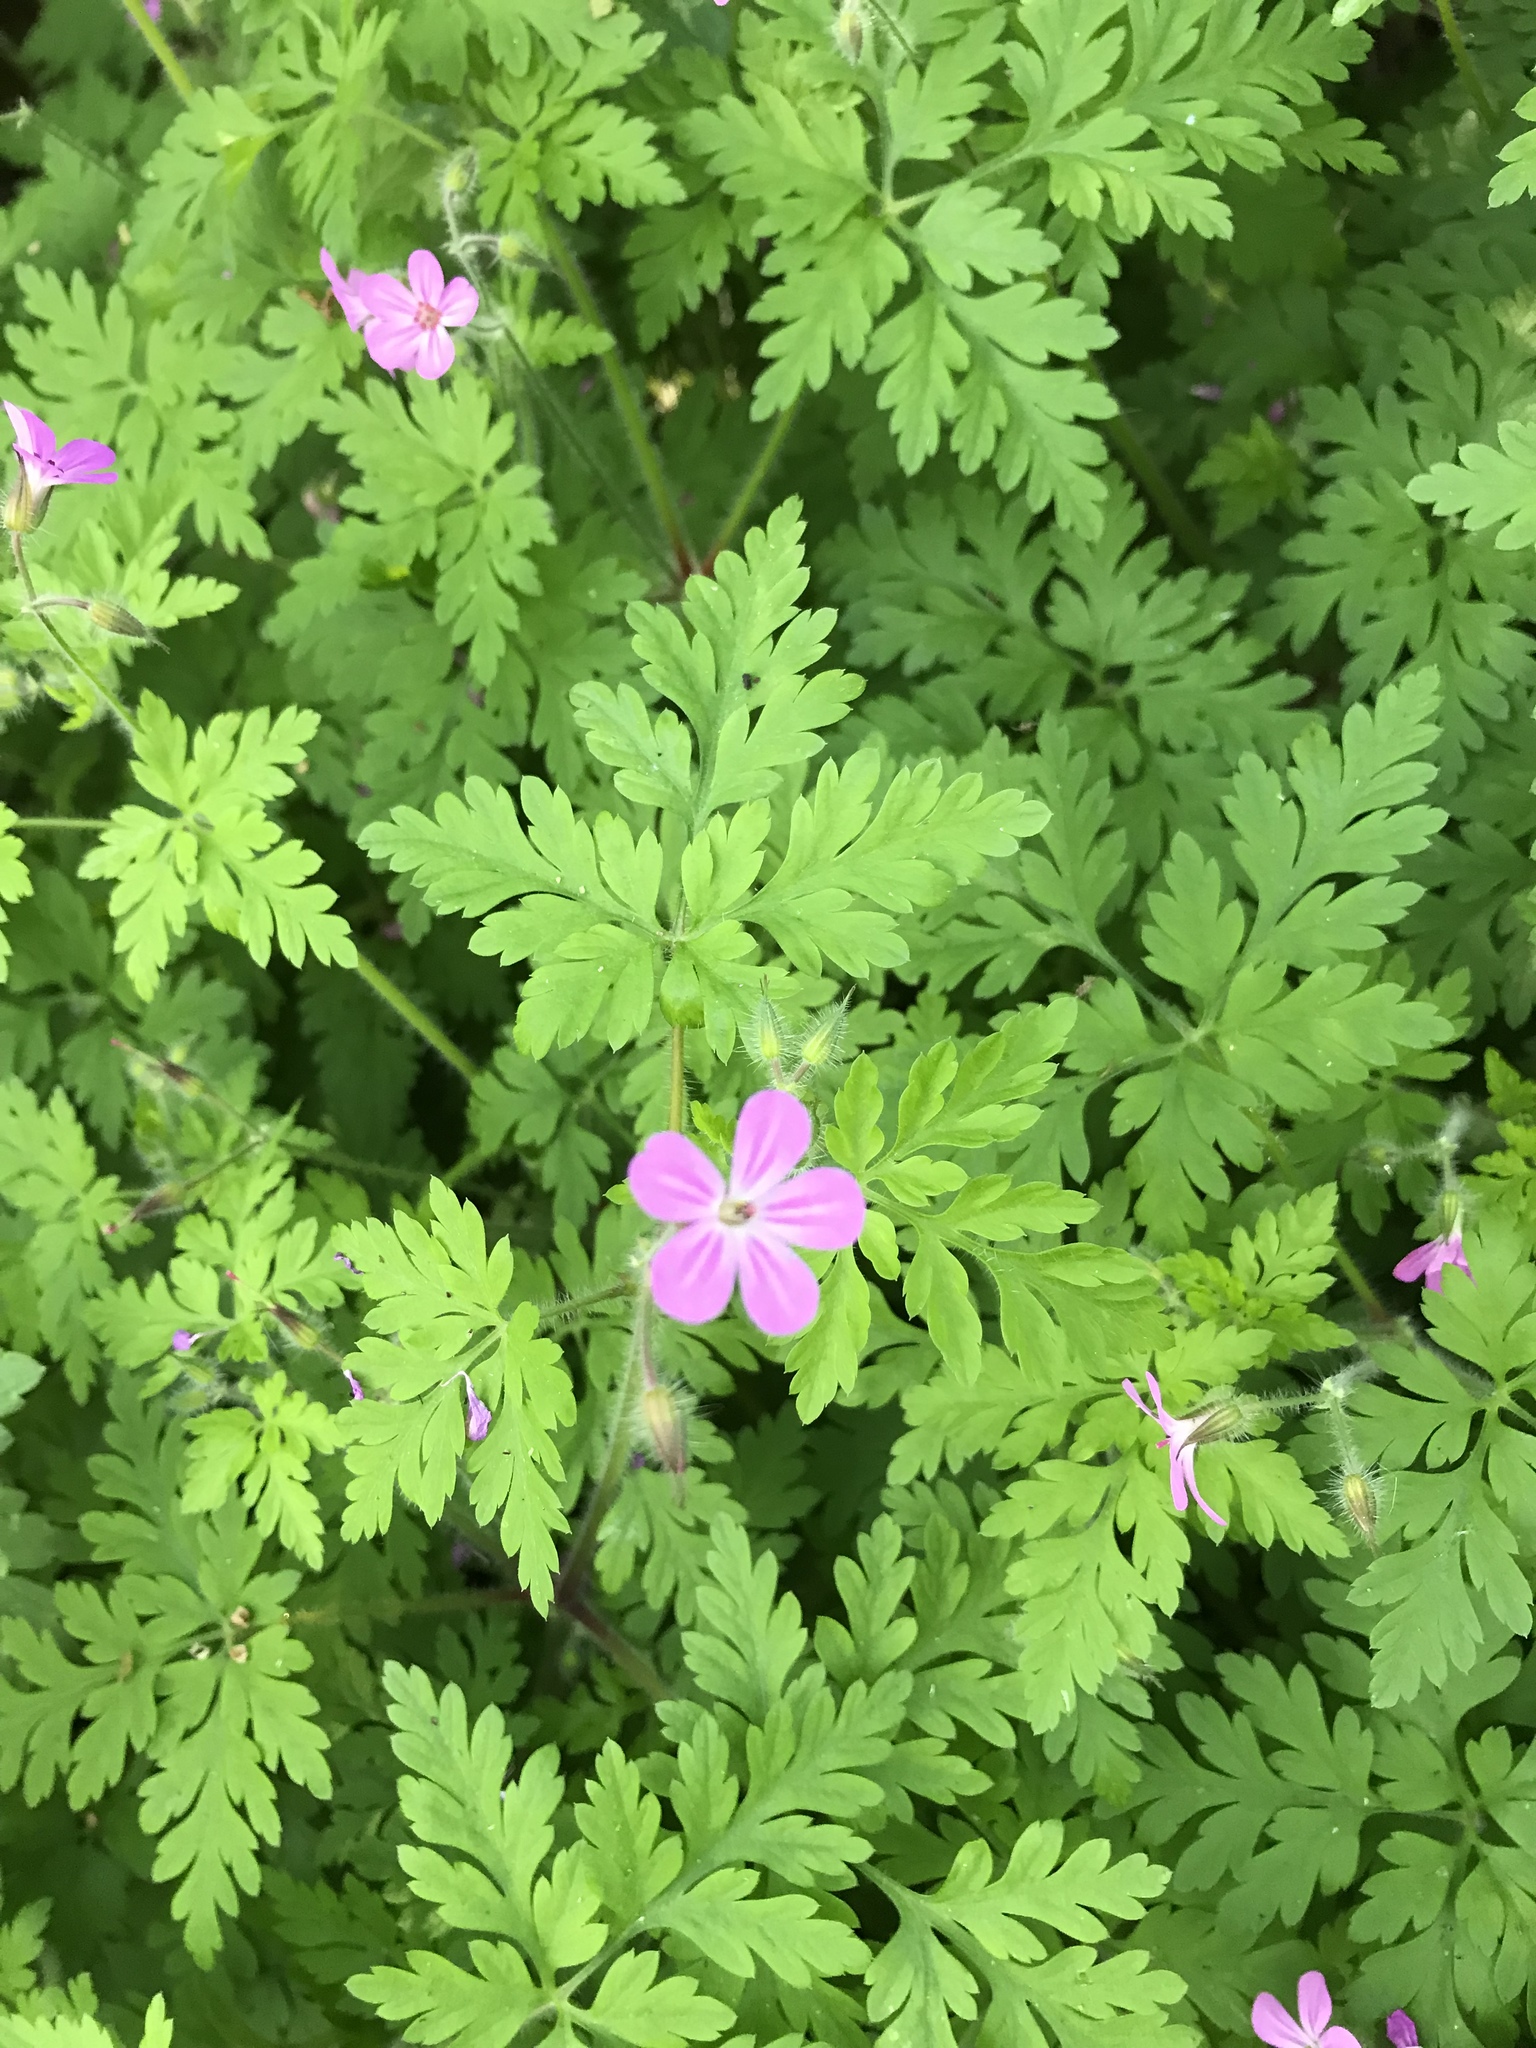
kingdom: Plantae
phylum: Tracheophyta
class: Magnoliopsida
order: Geraniales
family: Geraniaceae
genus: Geranium
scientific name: Geranium robertianum
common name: Herb-robert
